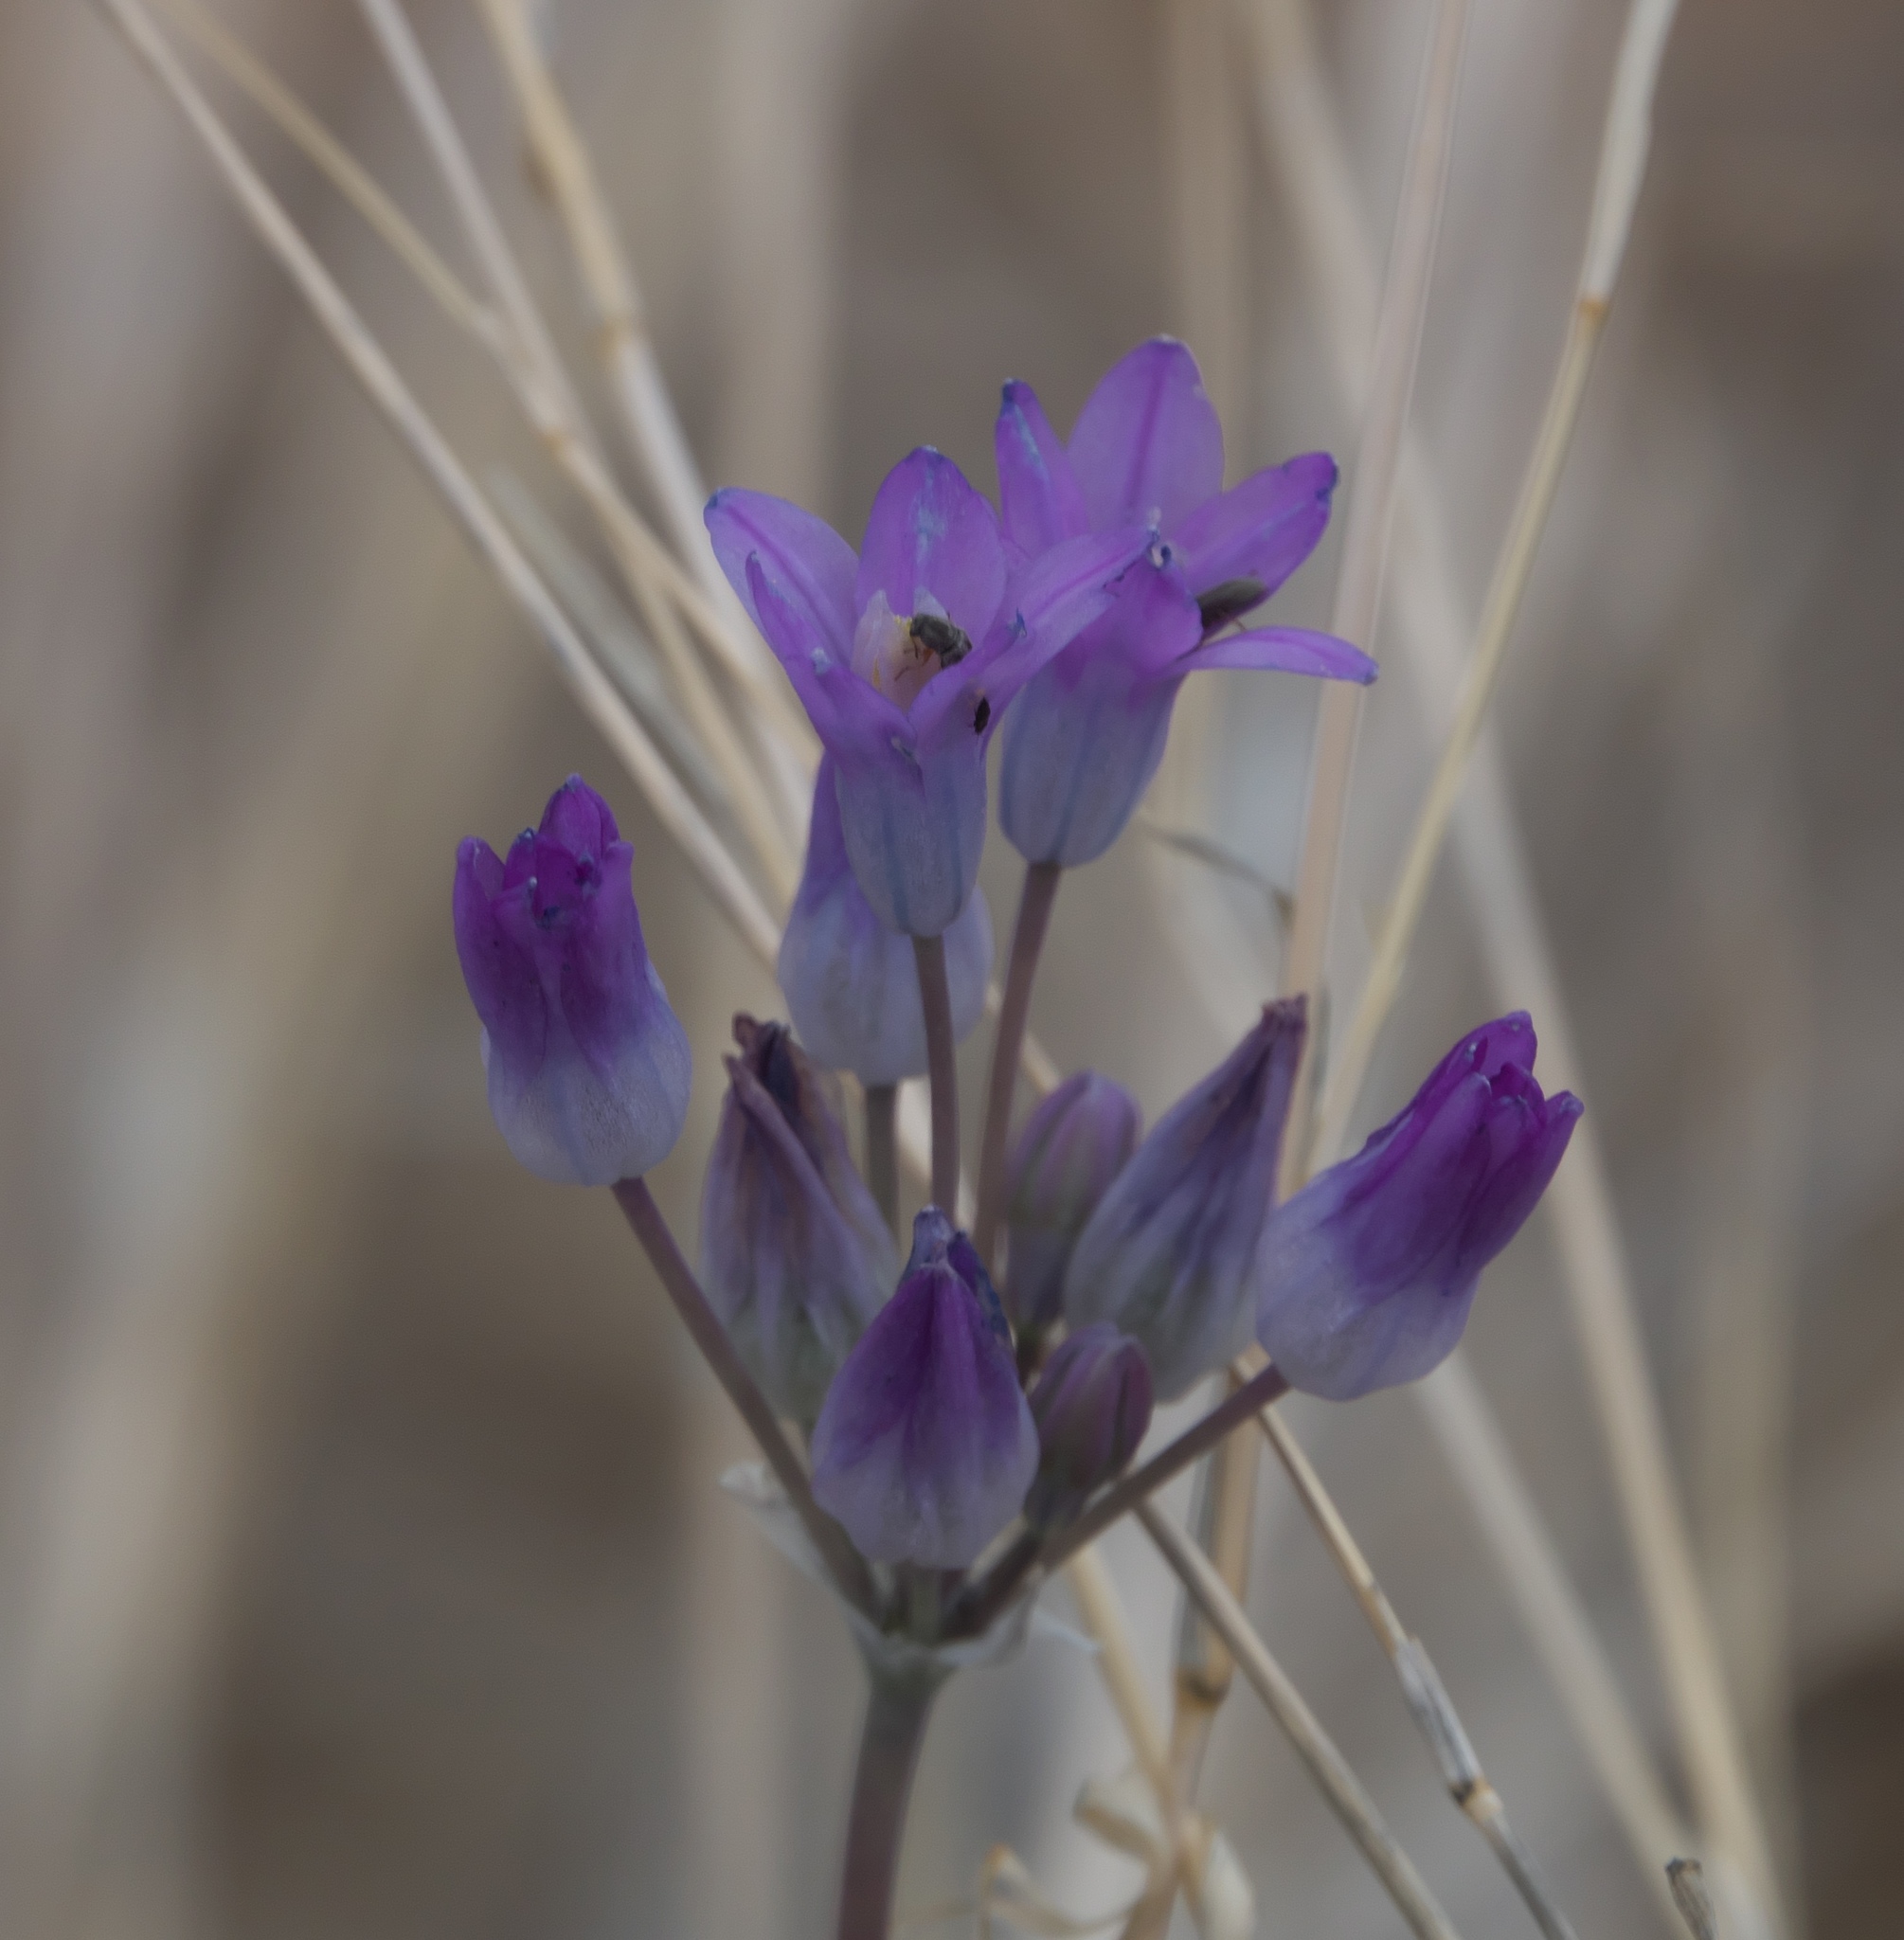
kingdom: Plantae
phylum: Tracheophyta
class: Liliopsida
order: Asparagales
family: Asparagaceae
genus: Dipterostemon
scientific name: Dipterostemon capitatus
